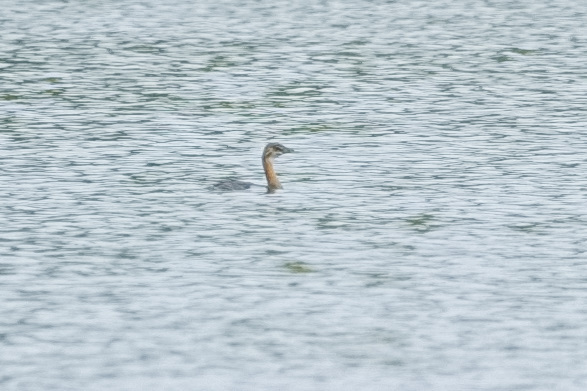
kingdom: Animalia
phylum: Chordata
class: Aves
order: Podicipediformes
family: Podicipedidae
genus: Podilymbus
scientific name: Podilymbus podiceps
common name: Pied-billed grebe
